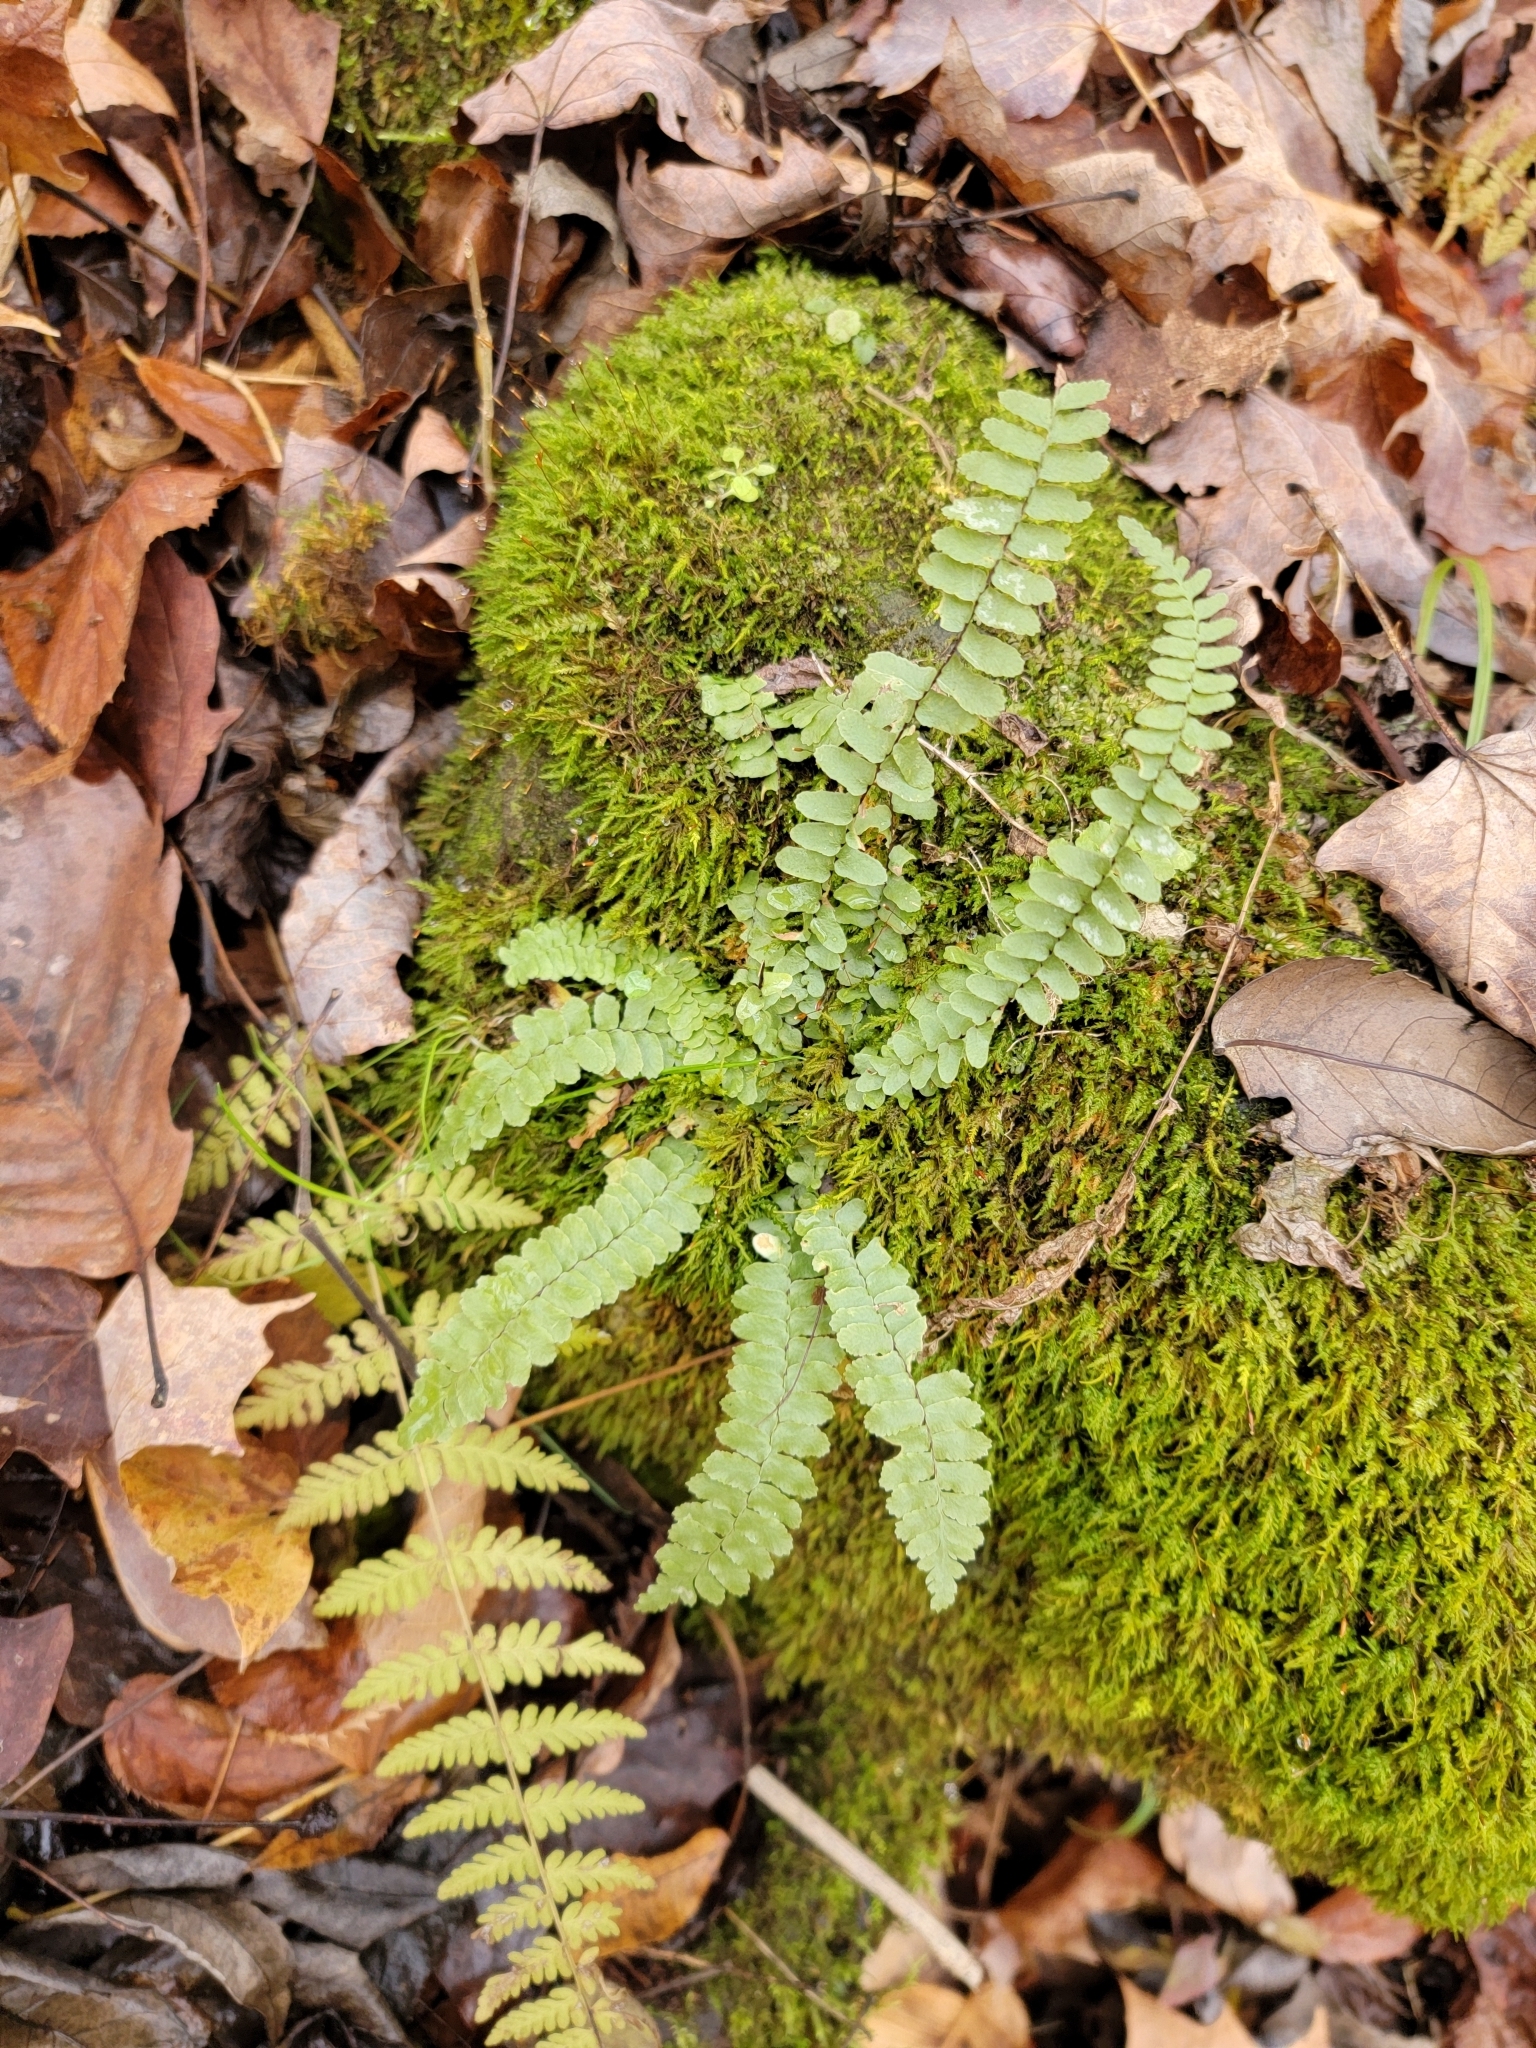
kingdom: Plantae
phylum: Tracheophyta
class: Polypodiopsida
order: Polypodiales
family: Aspleniaceae
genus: Asplenium
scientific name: Asplenium platyneuron
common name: Ebony spleenwort
